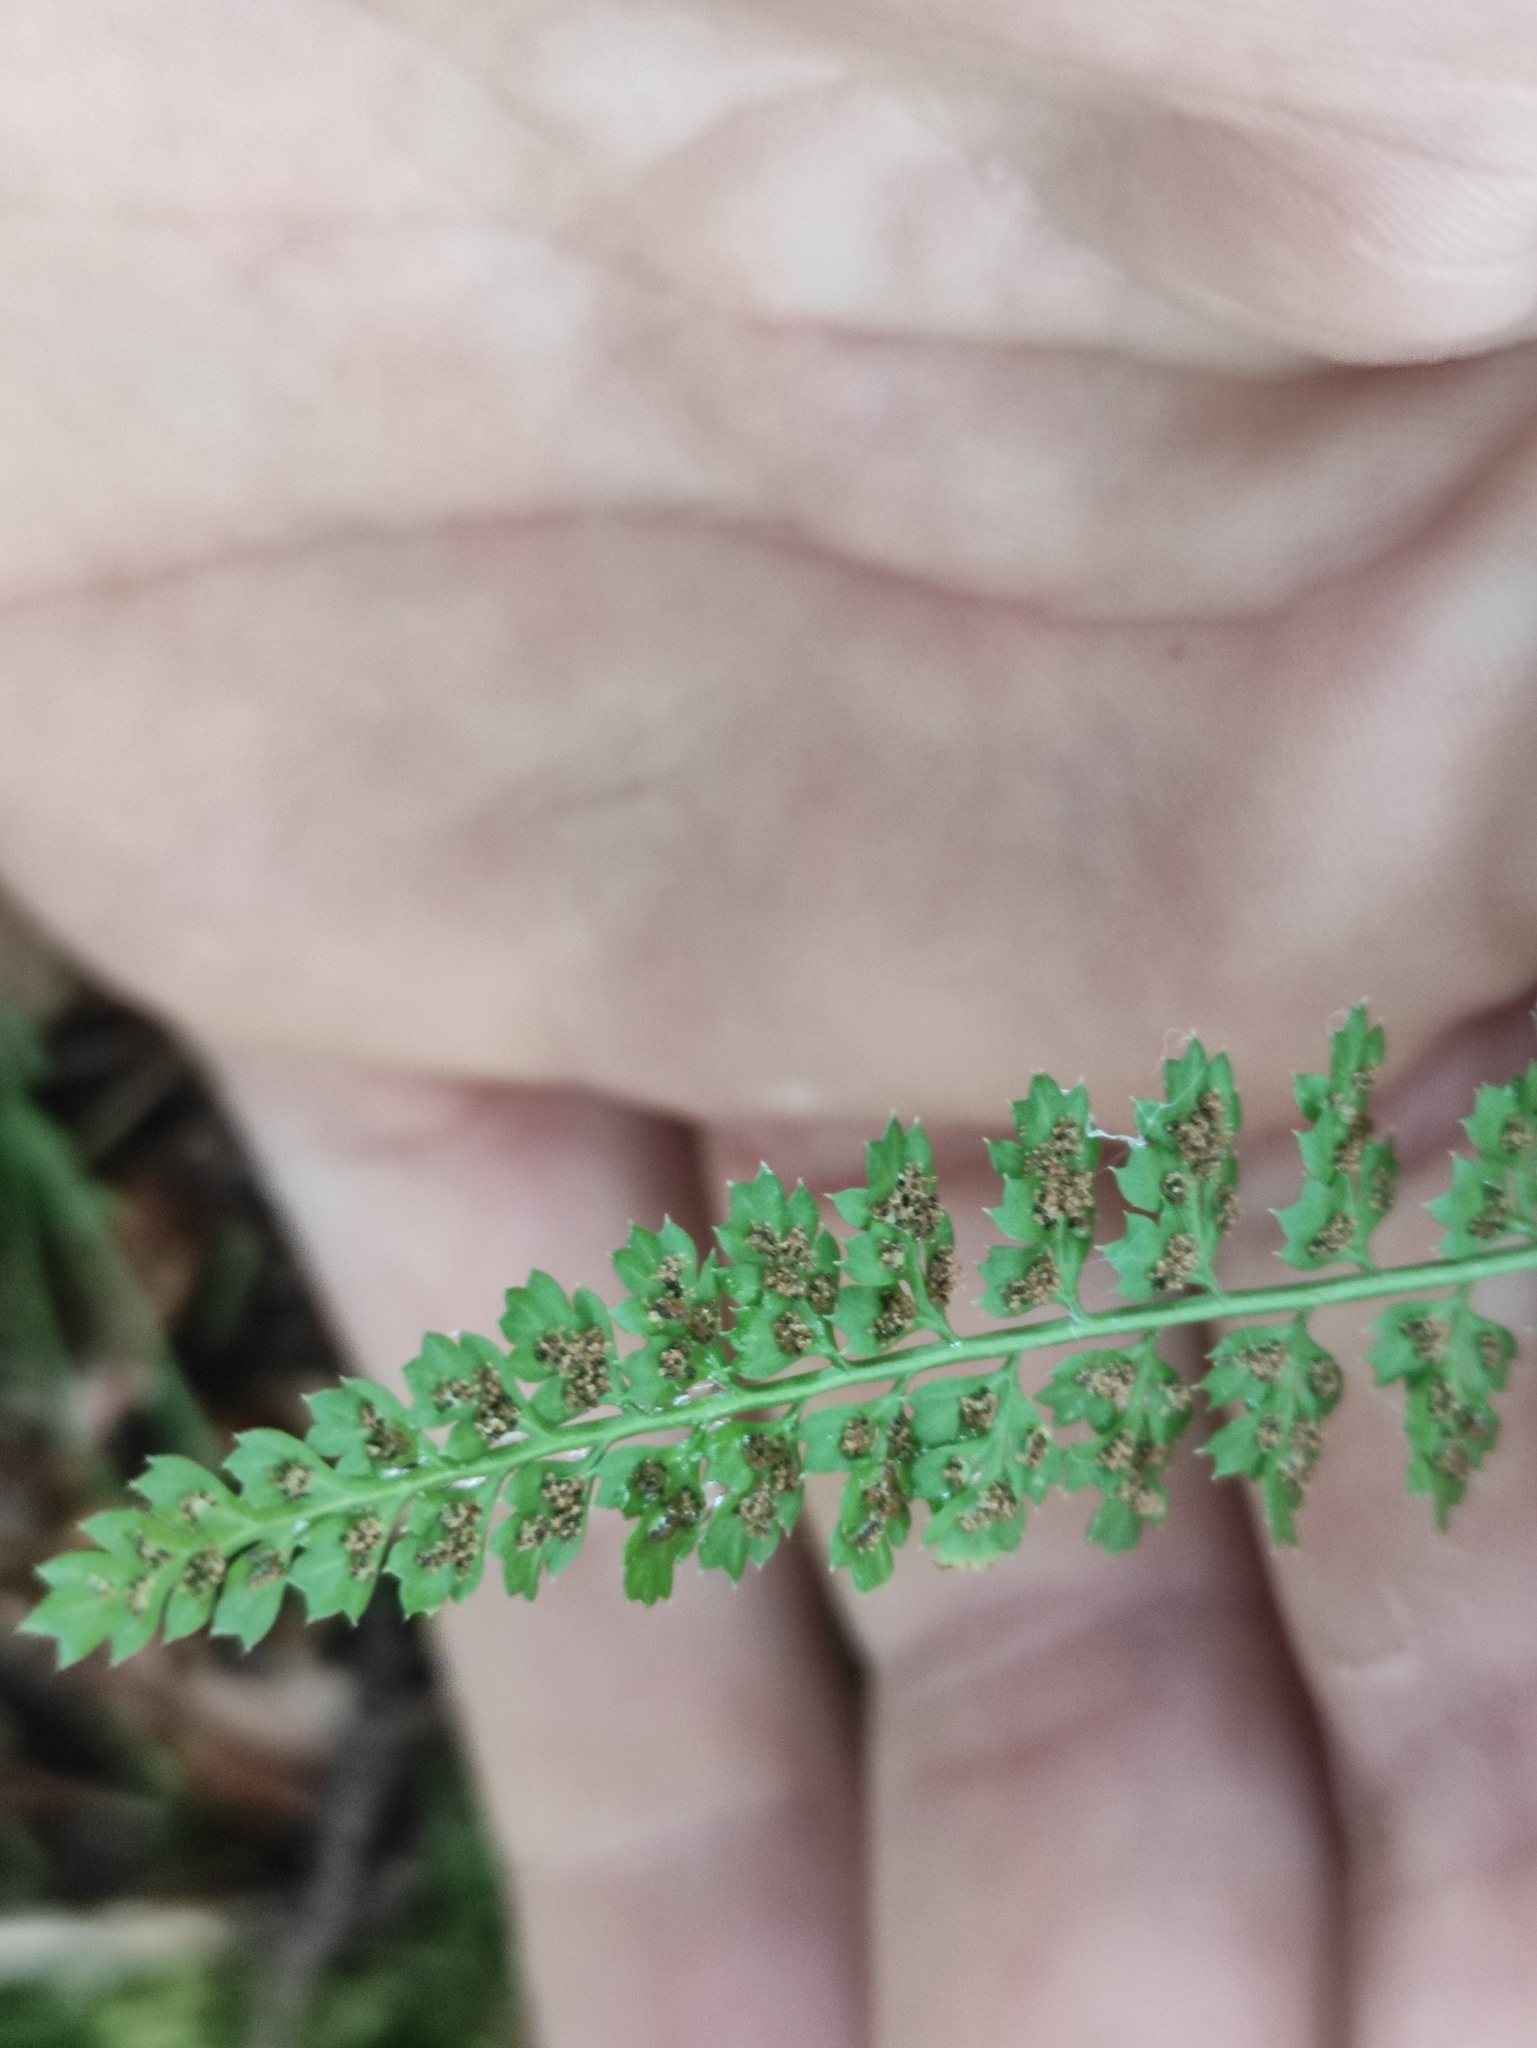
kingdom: Plantae
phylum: Tracheophyta
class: Polypodiopsida
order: Polypodiales
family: Aspleniaceae
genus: Asplenium
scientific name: Asplenium fontanum
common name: Fountain spleenwort
